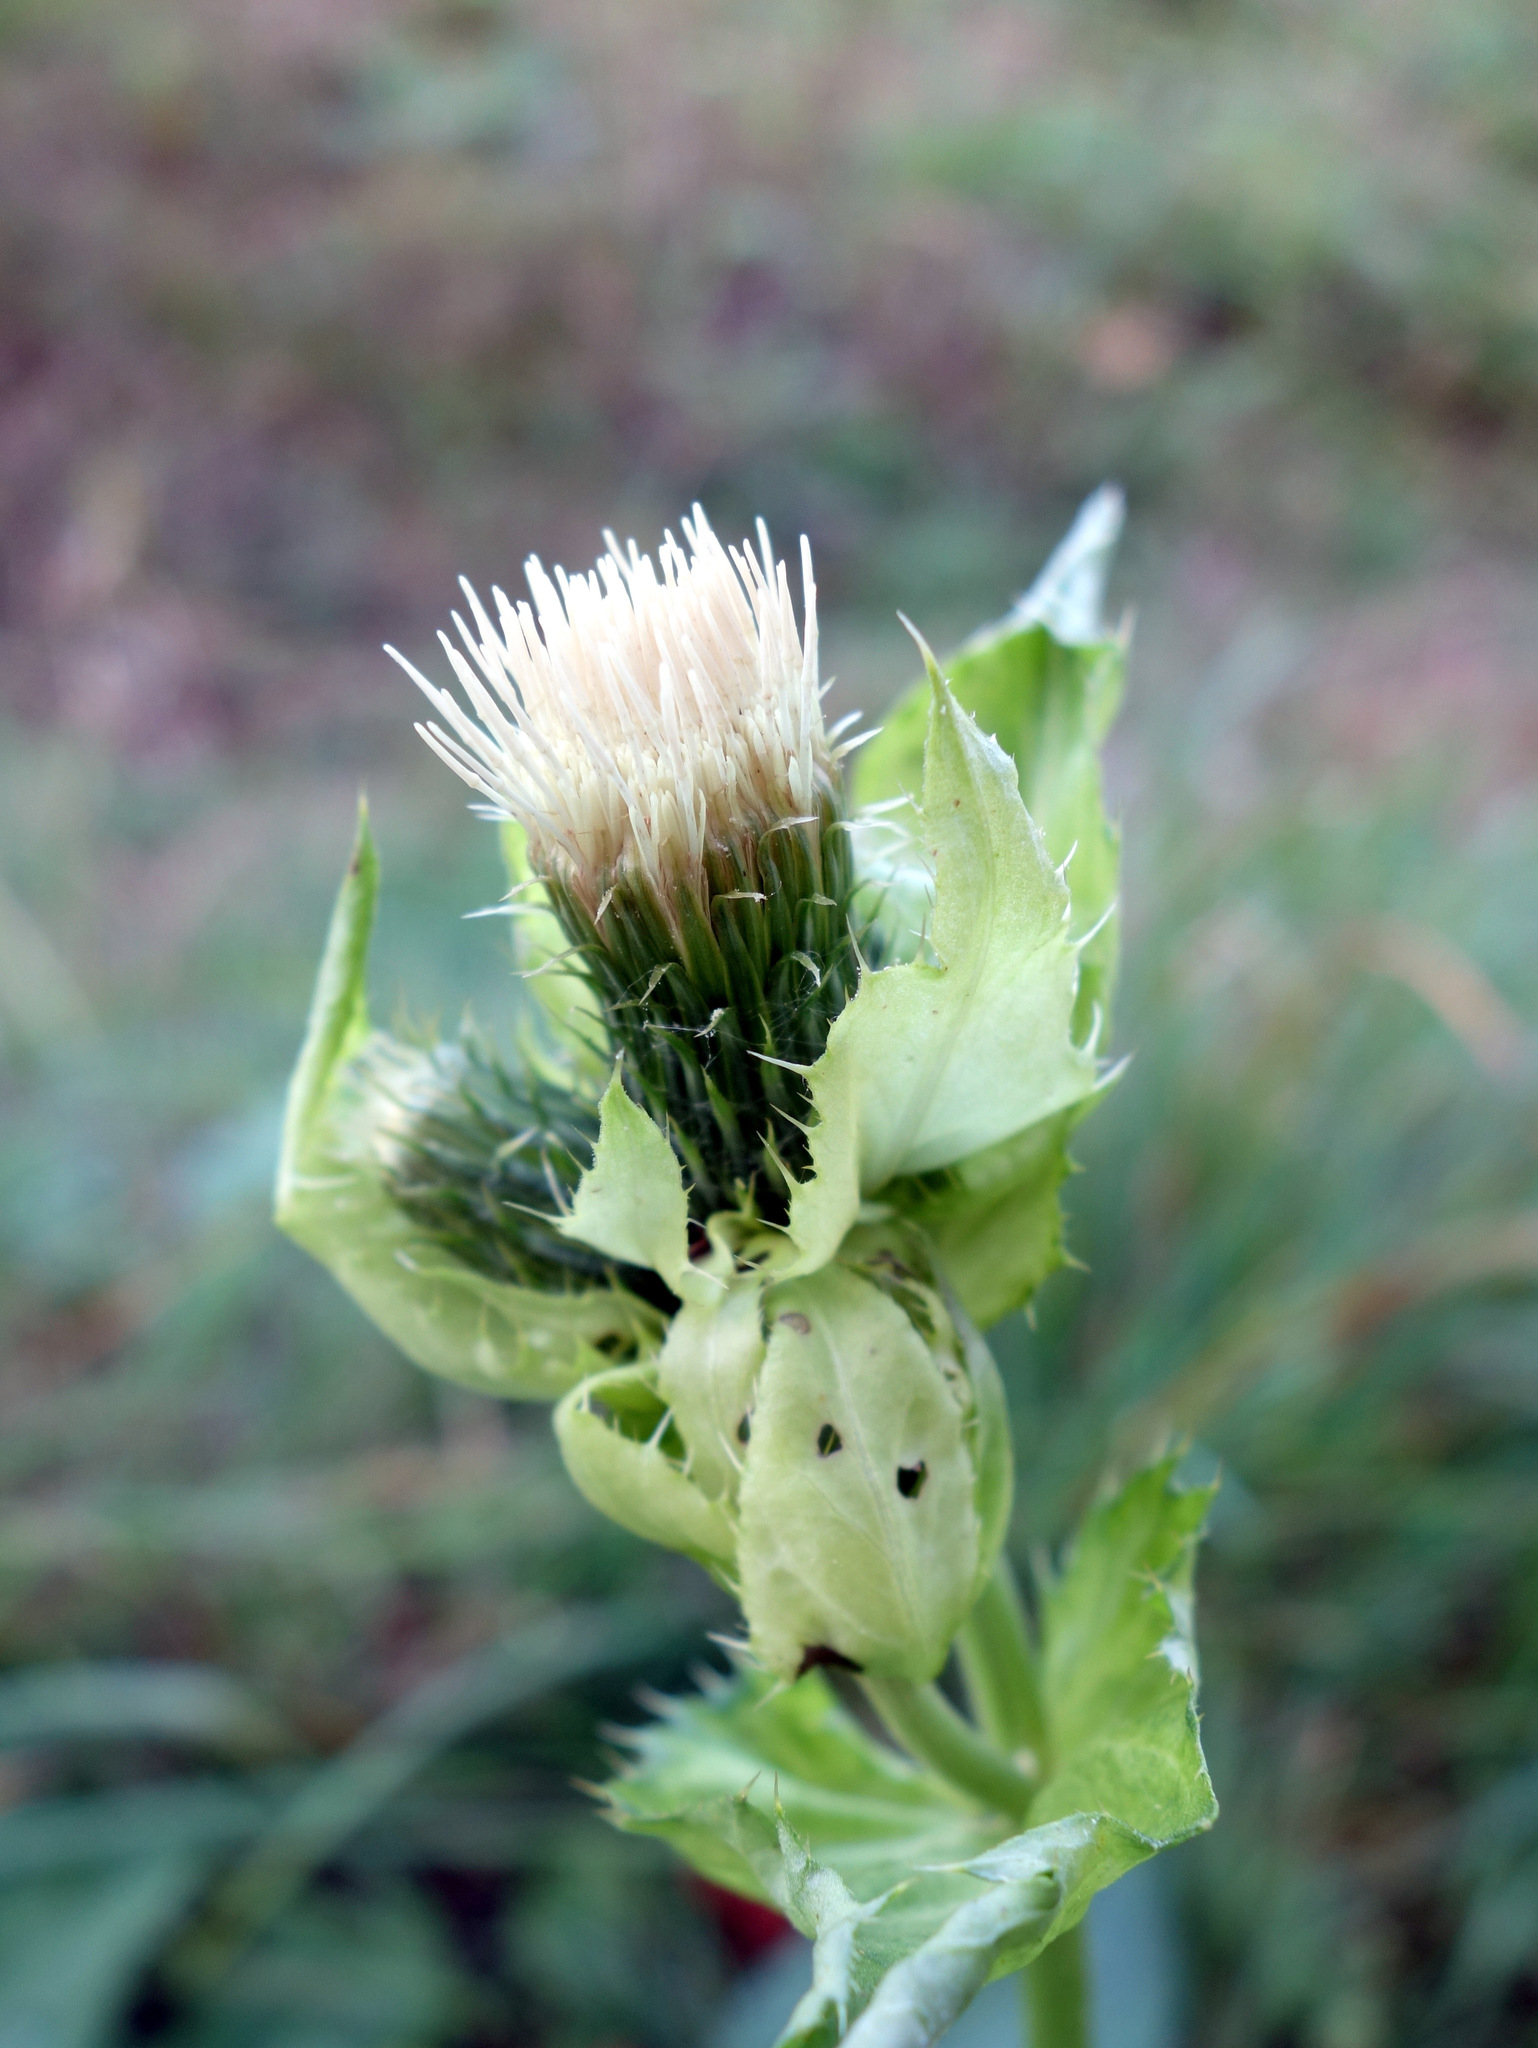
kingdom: Plantae
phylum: Tracheophyta
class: Magnoliopsida
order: Asterales
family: Asteraceae
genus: Cirsium
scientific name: Cirsium oleraceum
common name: Cabbage thistle
